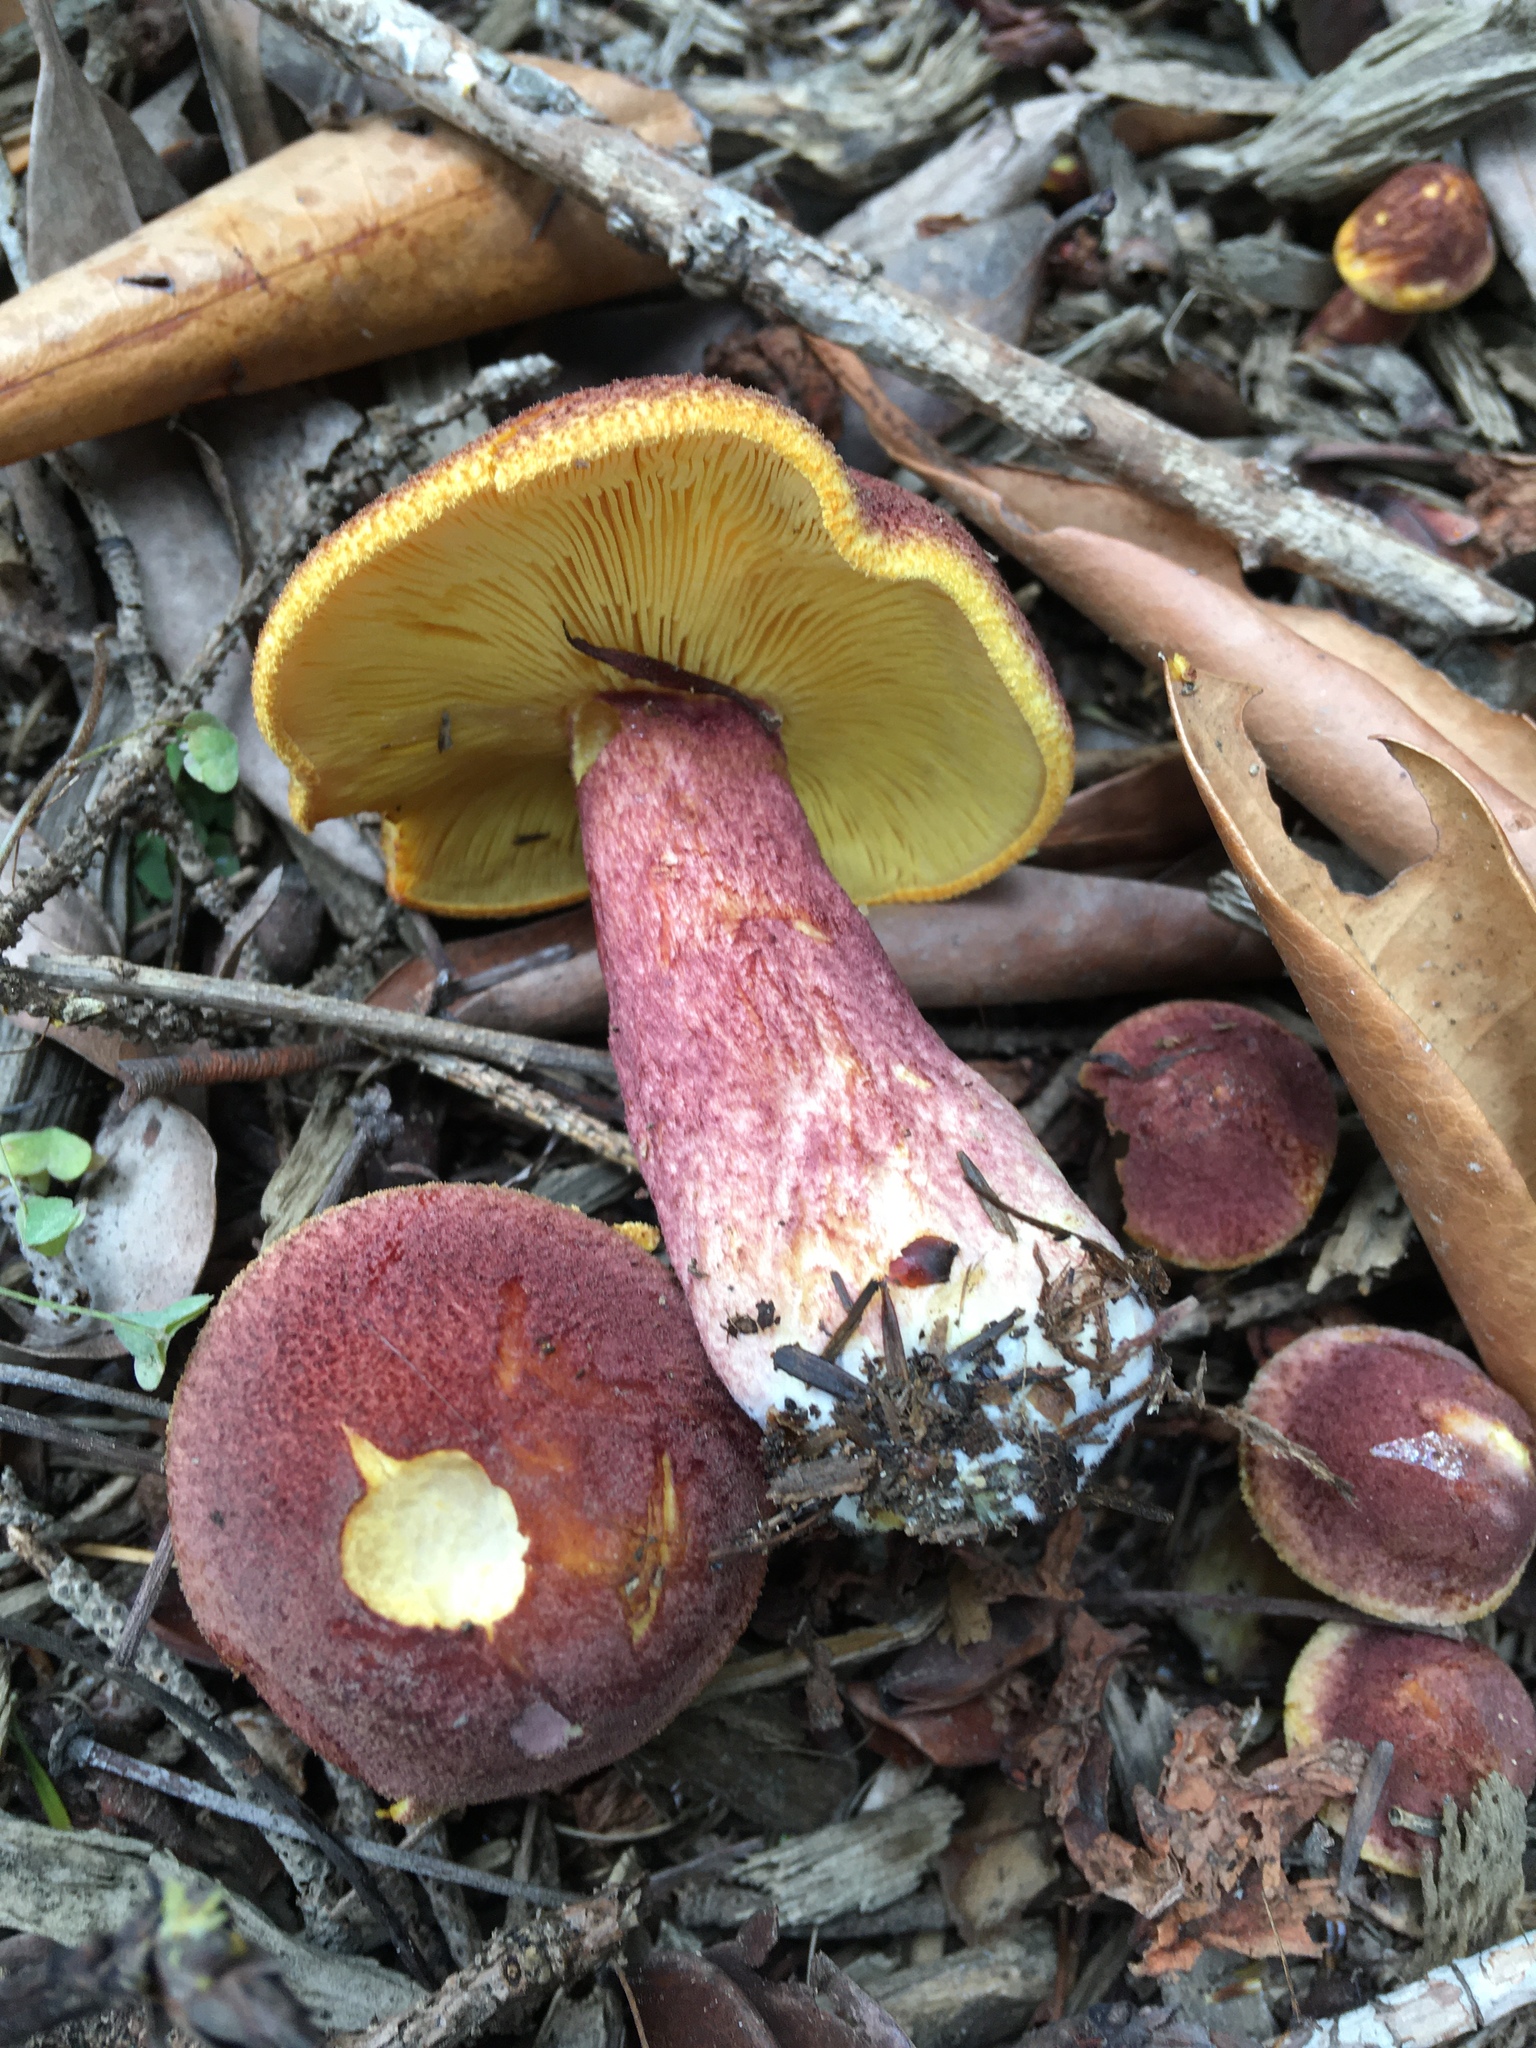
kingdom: Fungi
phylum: Basidiomycota
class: Agaricomycetes
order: Agaricales
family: Tricholomataceae
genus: Tricholomopsis
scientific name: Tricholomopsis rutilans
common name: Plums and custard
